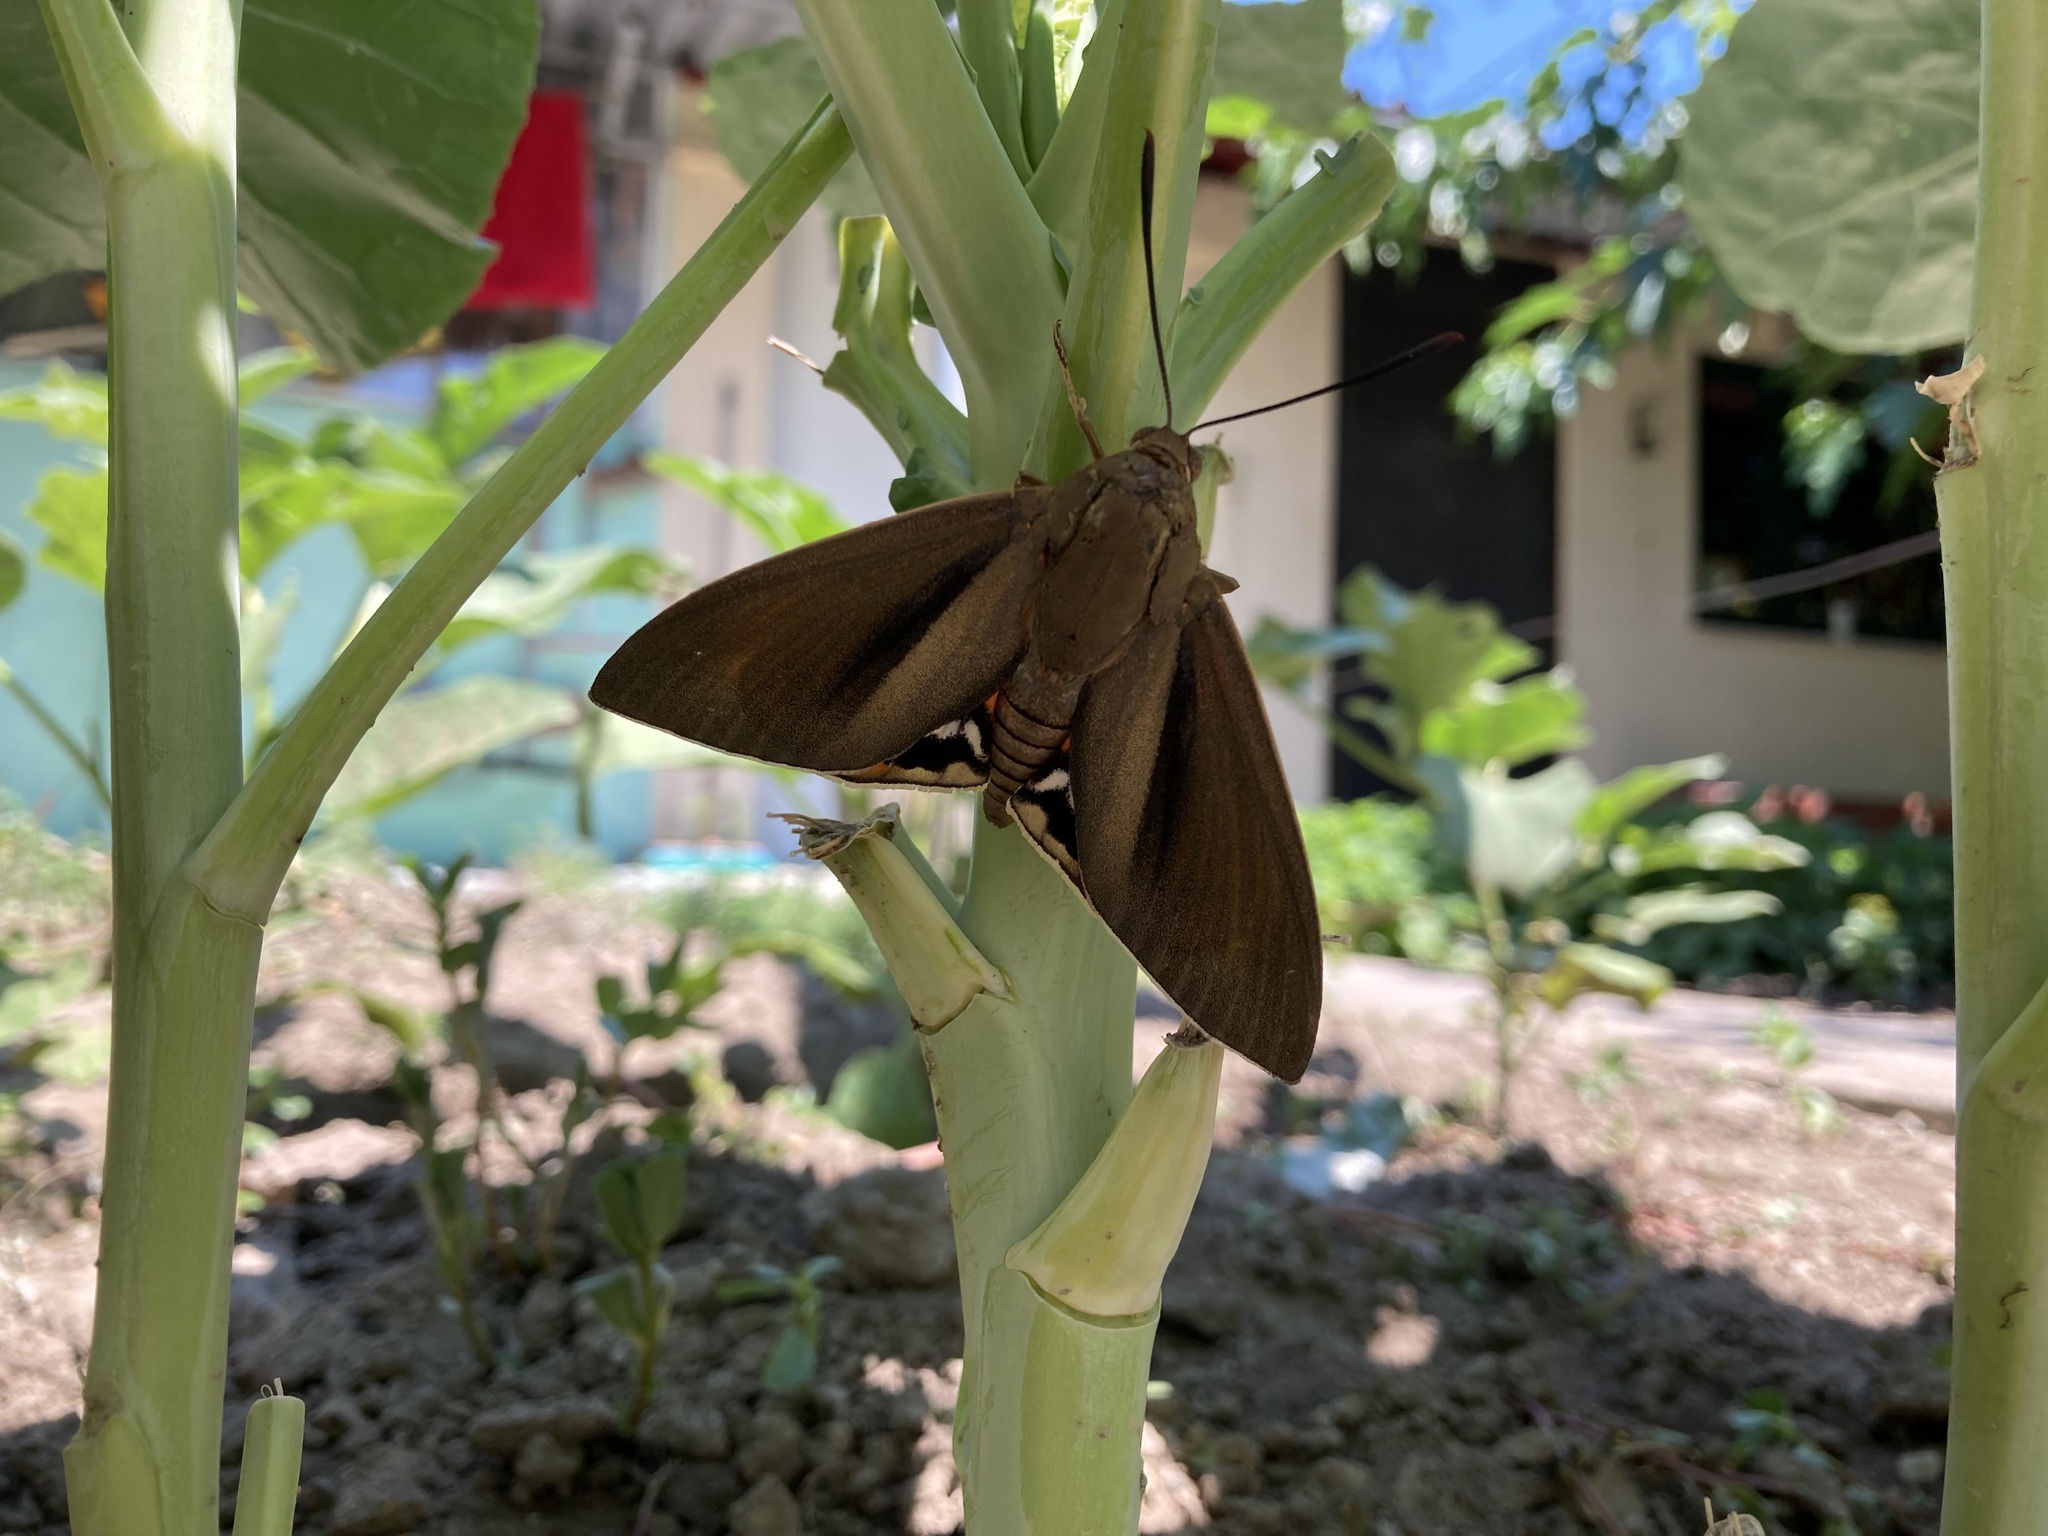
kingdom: Animalia
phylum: Arthropoda
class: Insecta
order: Lepidoptera
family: Castniidae
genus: Paysandisia
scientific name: Paysandisia archon
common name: Palm moth
